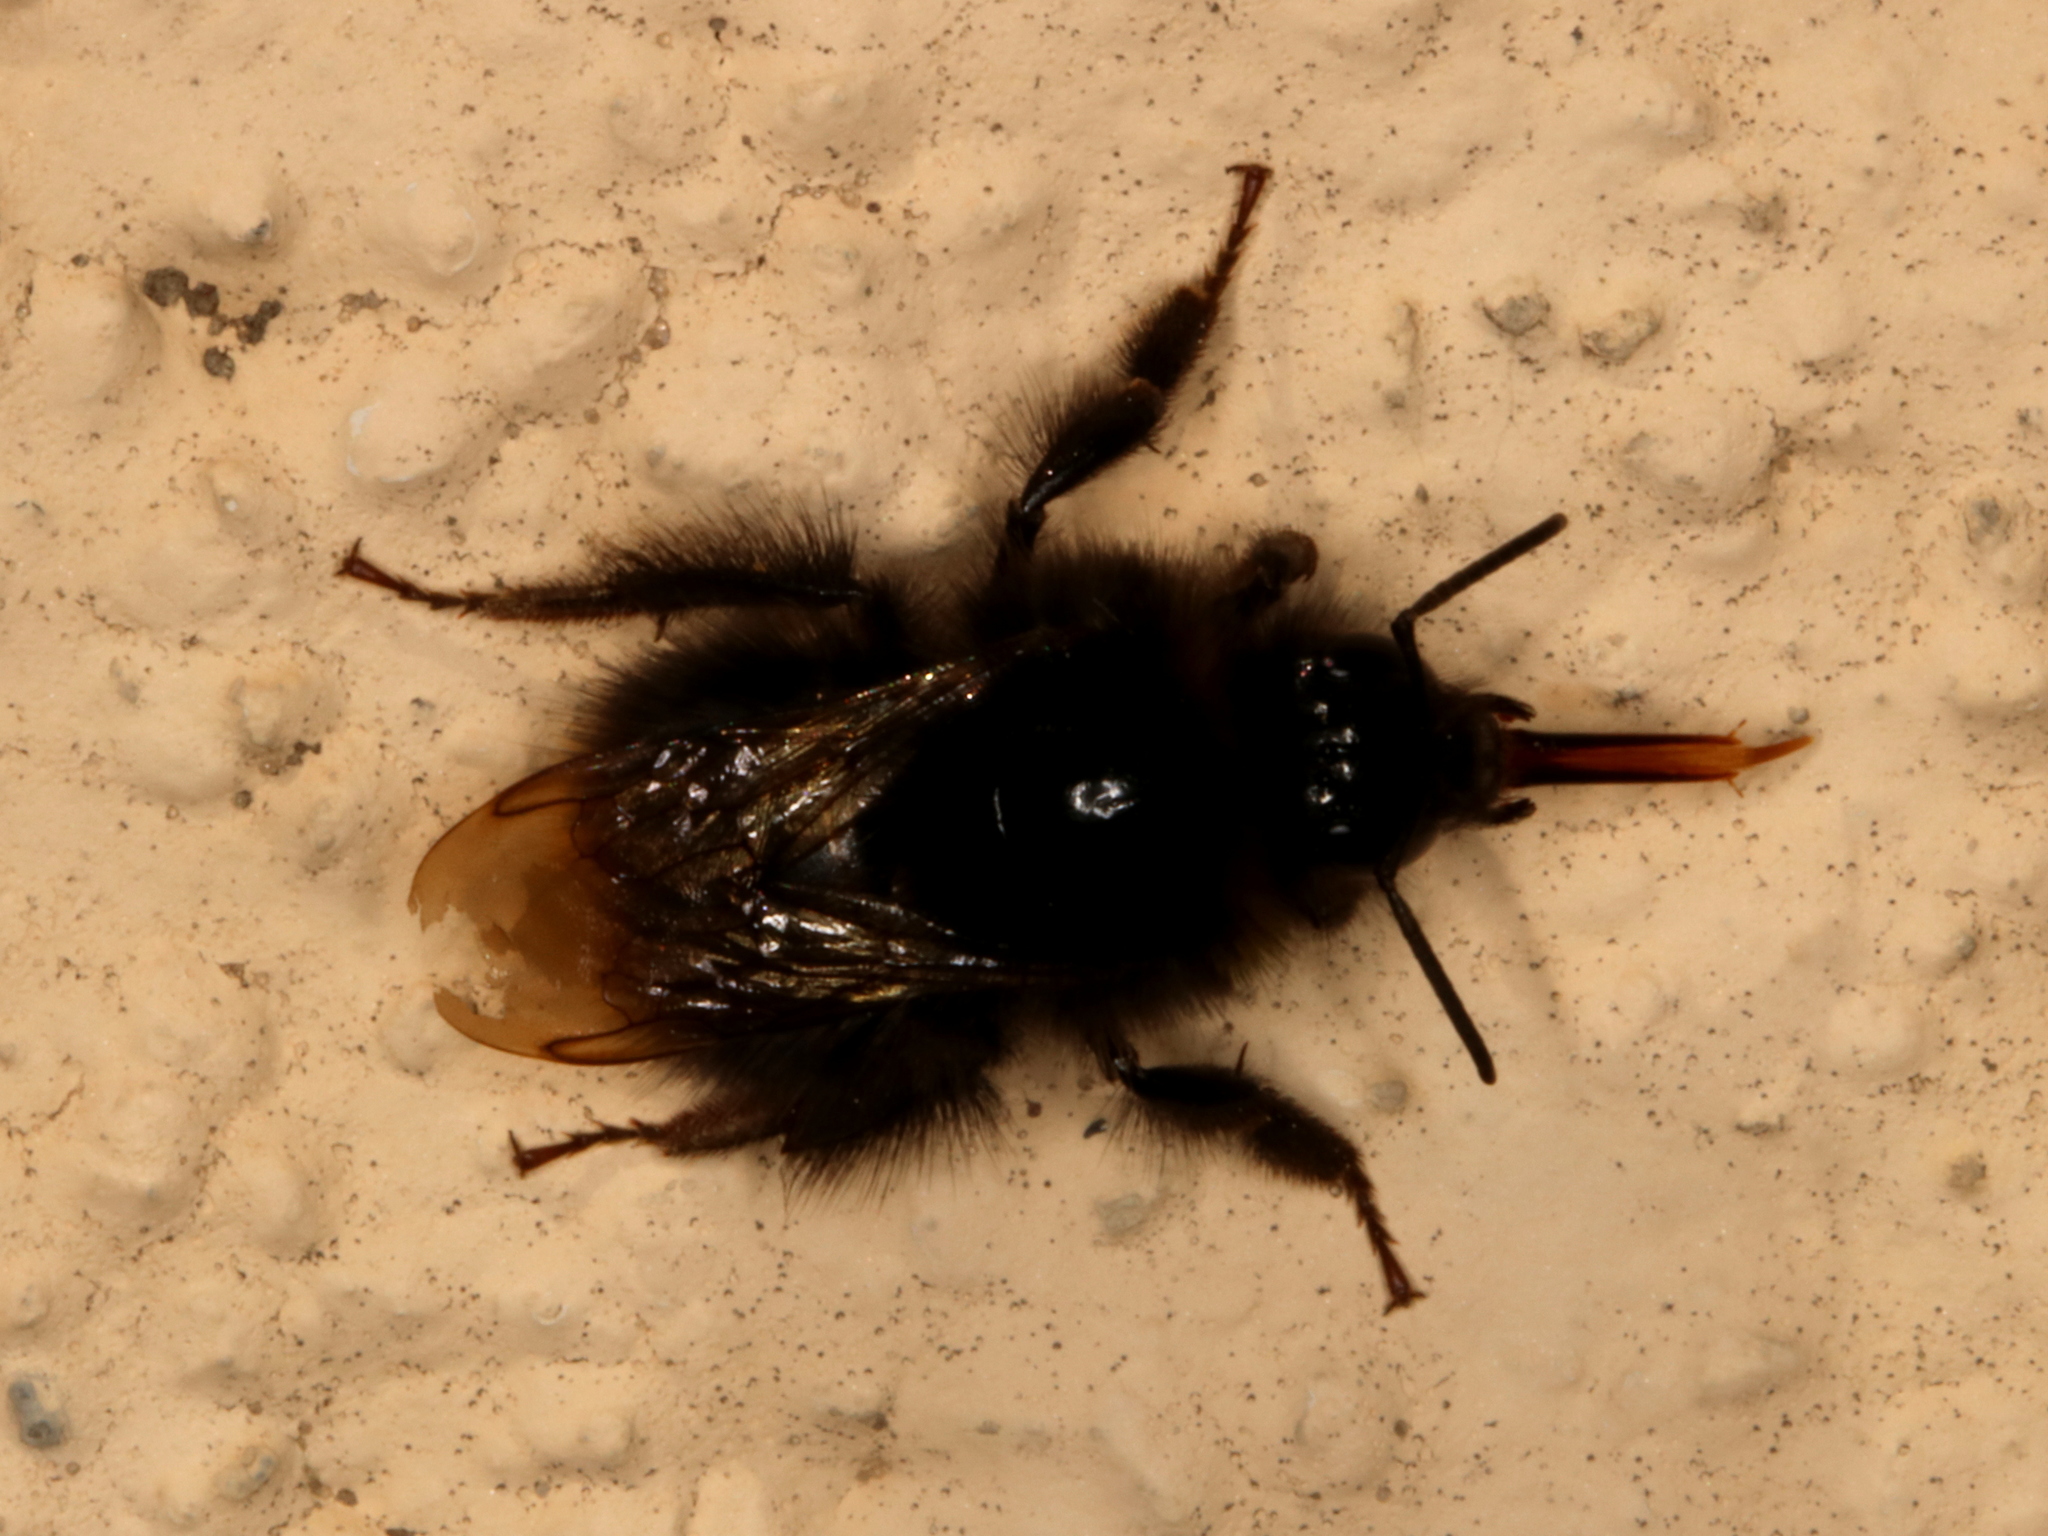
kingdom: Animalia
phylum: Arthropoda
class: Insecta
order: Hymenoptera
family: Apidae
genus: Bombus
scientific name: Bombus lapidarius
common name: Large red-tailed humble-bee
